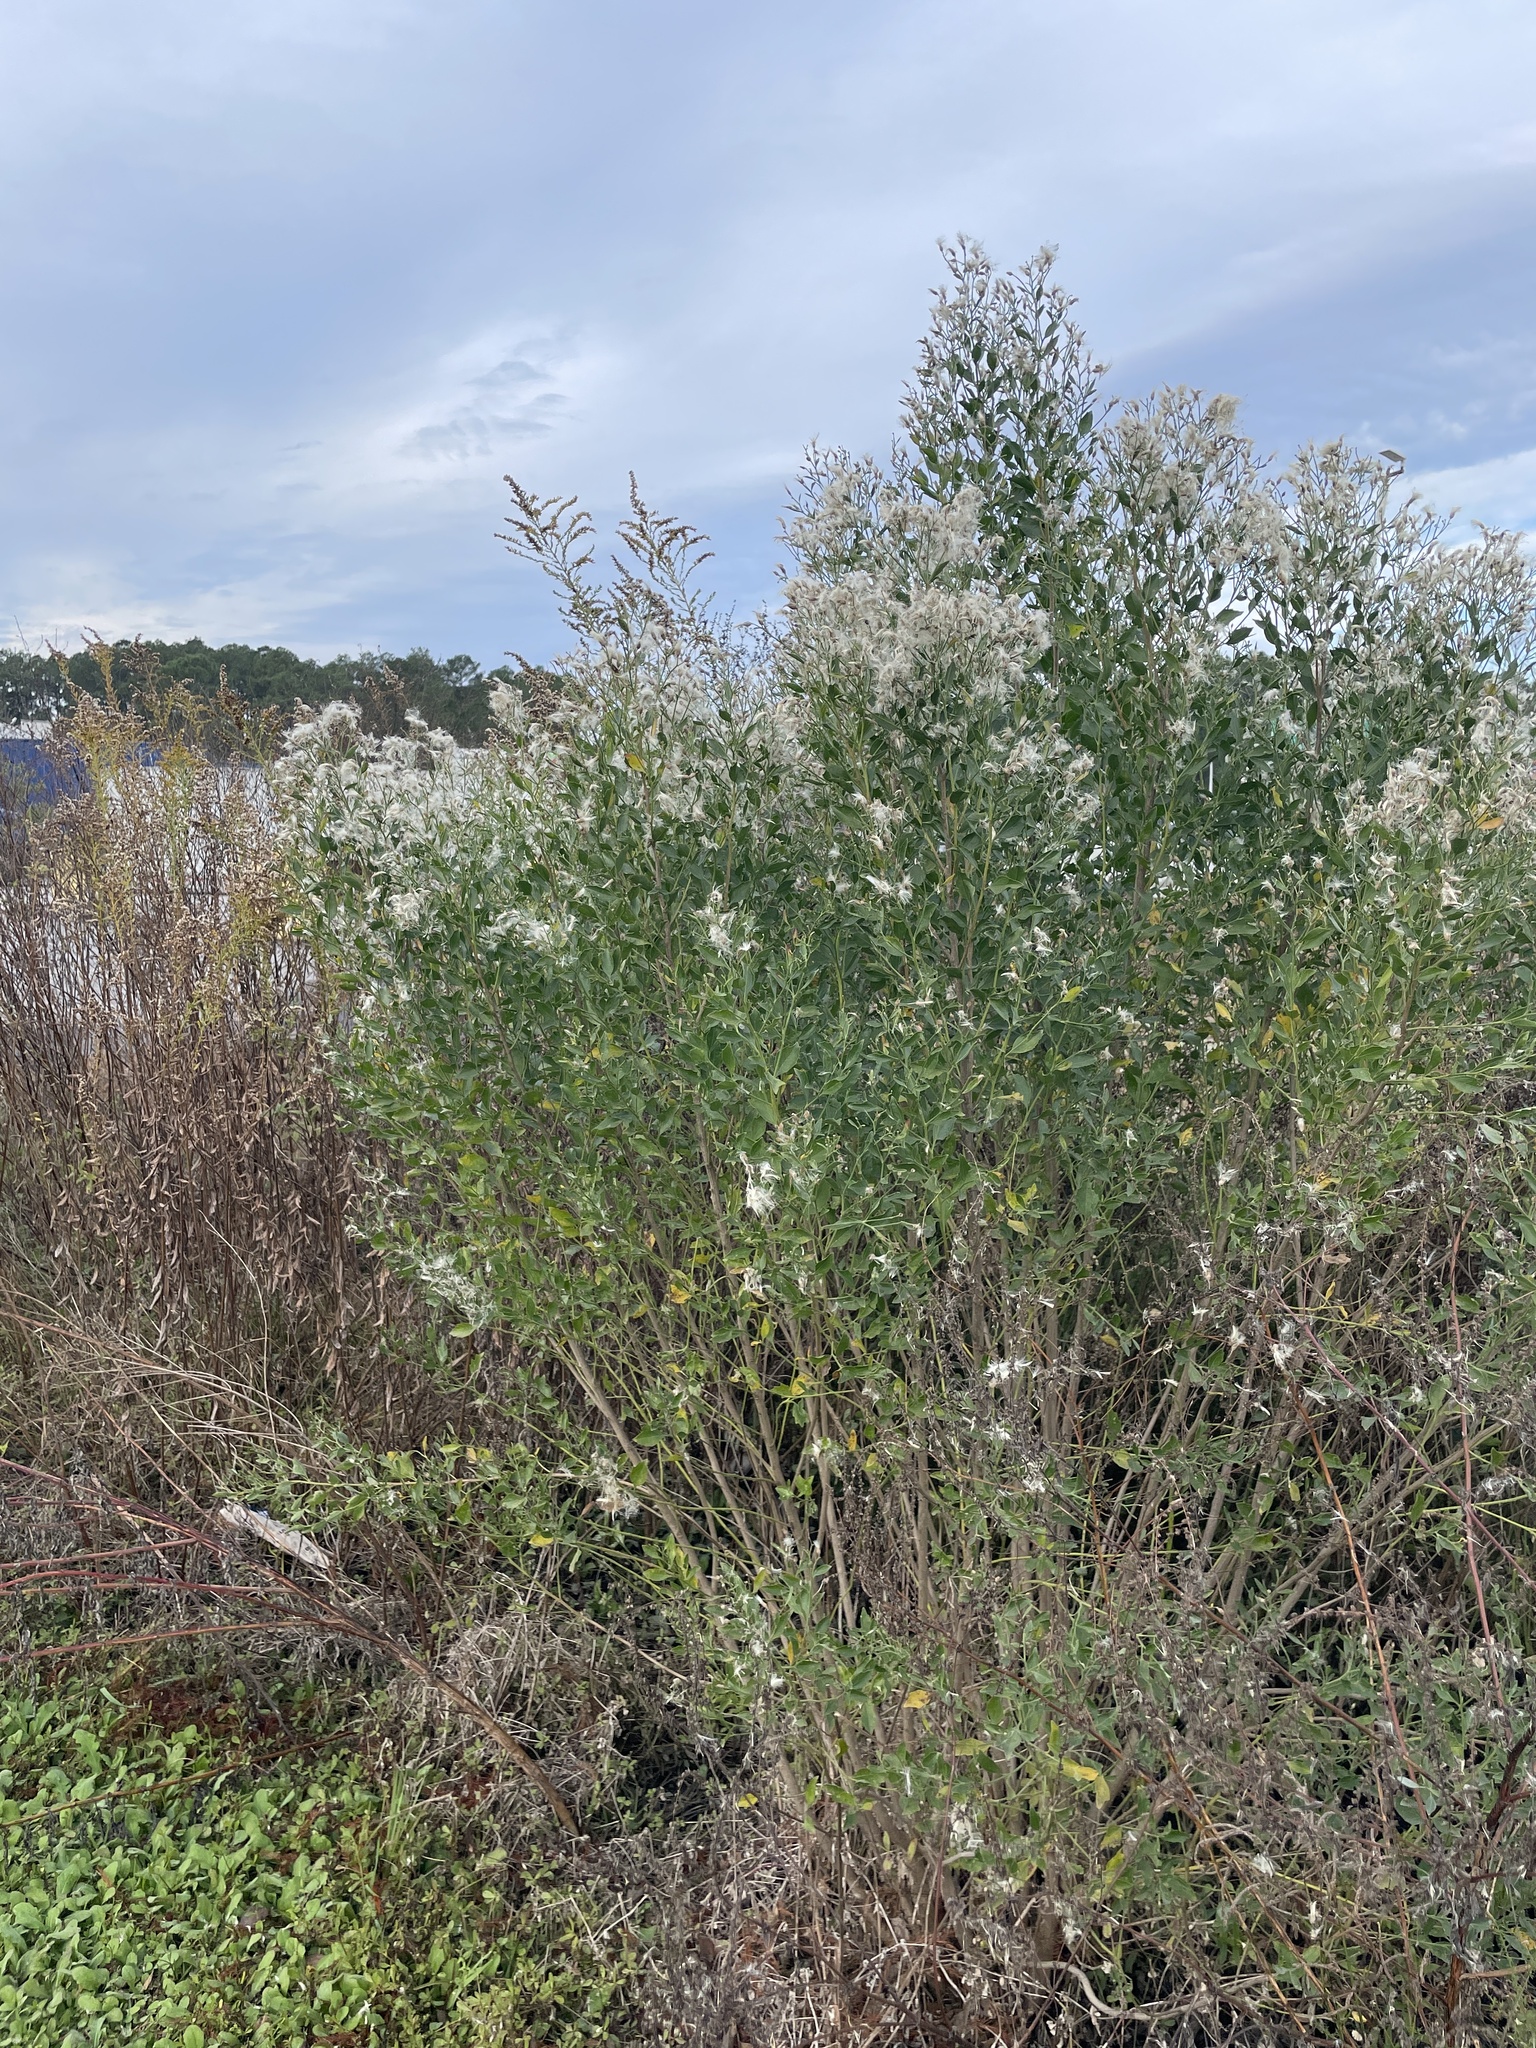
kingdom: Plantae
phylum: Tracheophyta
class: Magnoliopsida
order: Asterales
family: Asteraceae
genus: Baccharis
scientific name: Baccharis halimifolia
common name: Eastern baccharis
